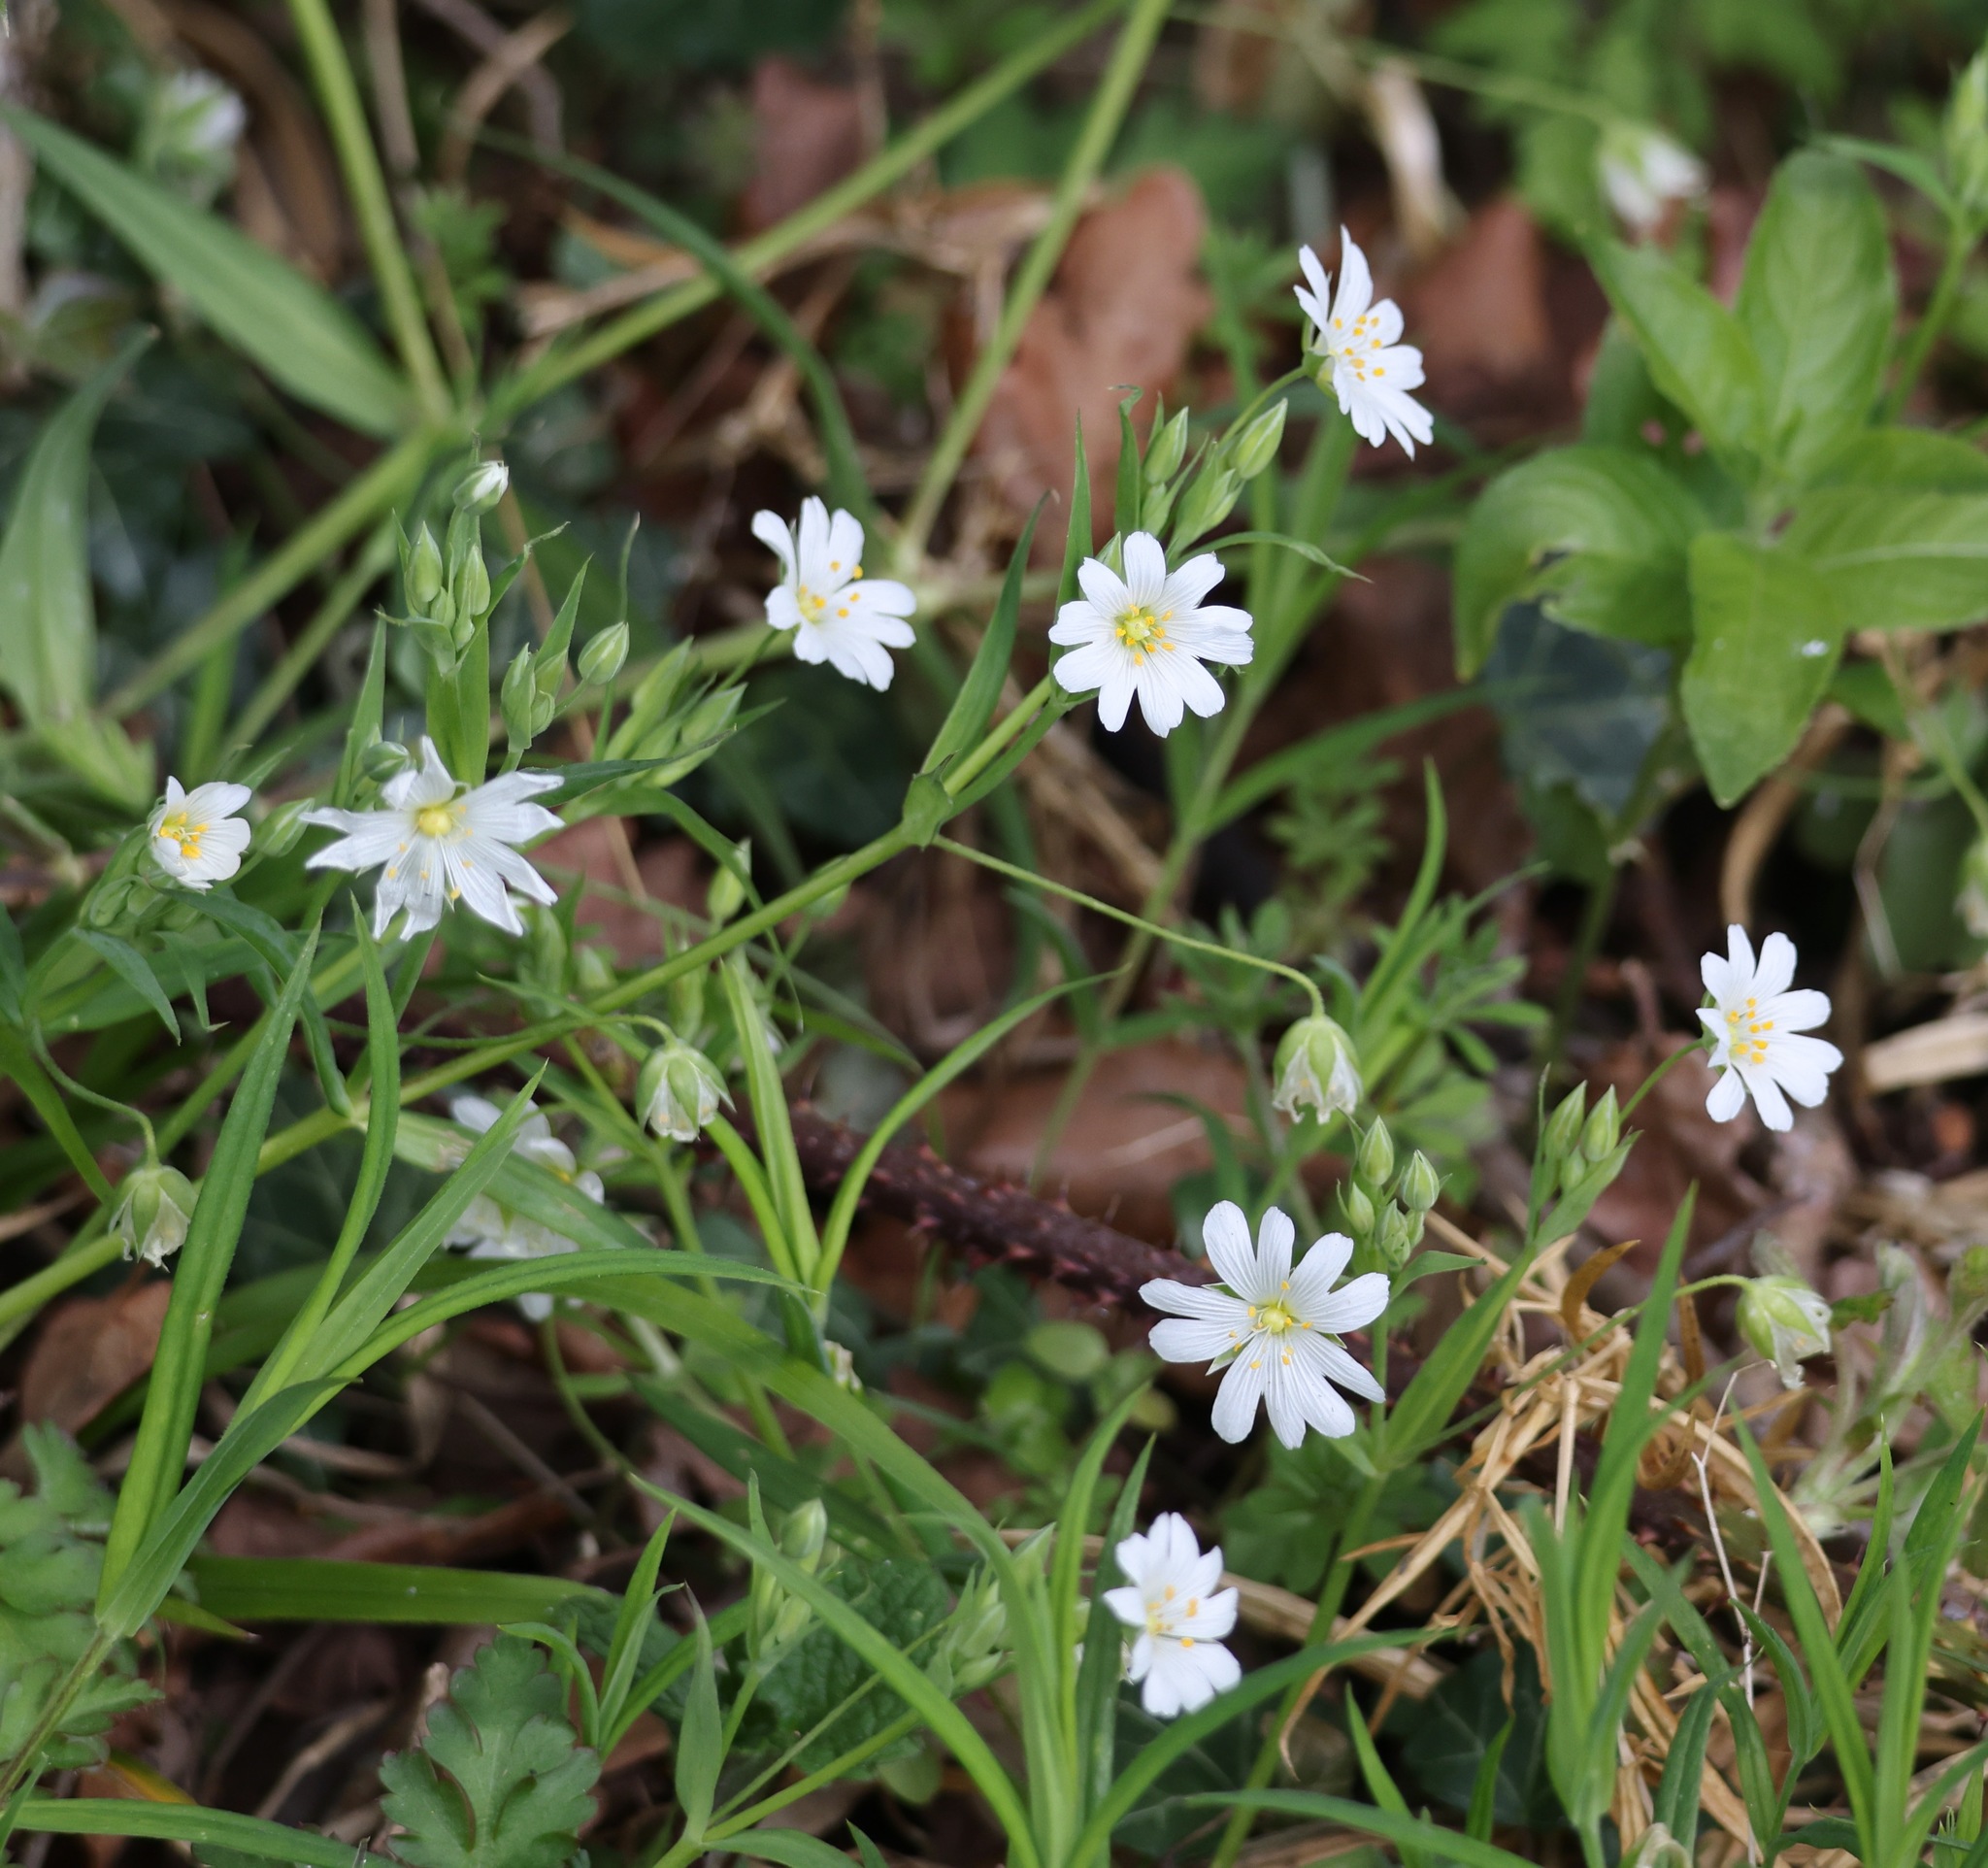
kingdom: Plantae
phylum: Tracheophyta
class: Magnoliopsida
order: Caryophyllales
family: Caryophyllaceae
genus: Rabelera
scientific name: Rabelera holostea
